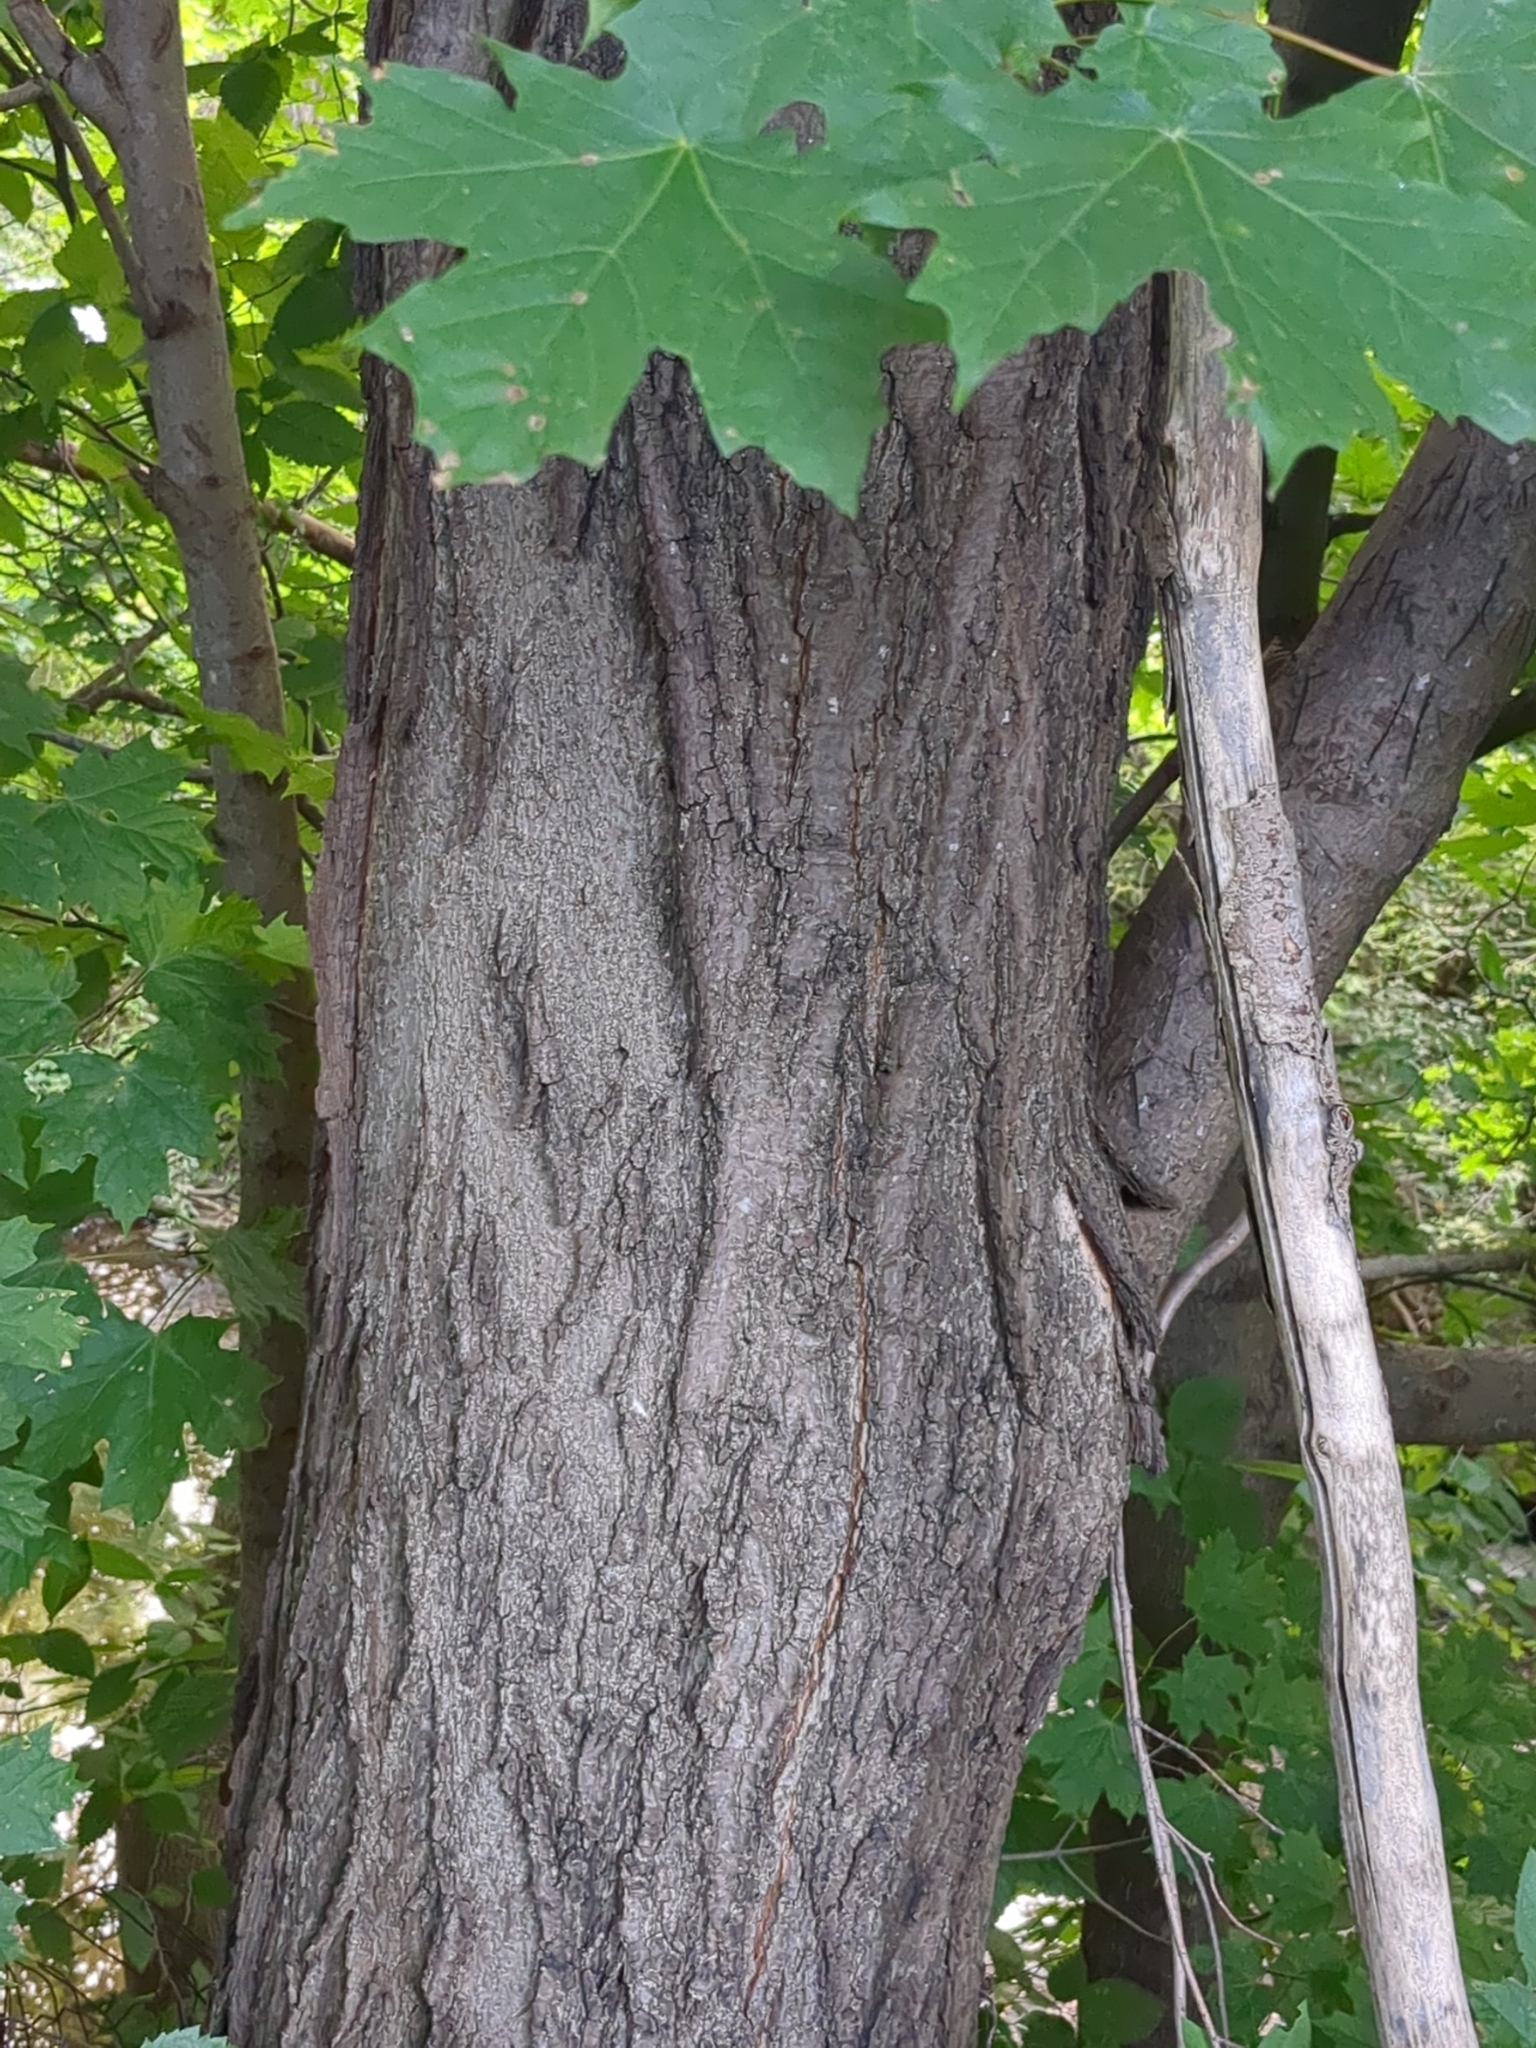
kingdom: Plantae
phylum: Tracheophyta
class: Magnoliopsida
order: Sapindales
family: Sapindaceae
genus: Acer
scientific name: Acer saccharum
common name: Sugar maple
